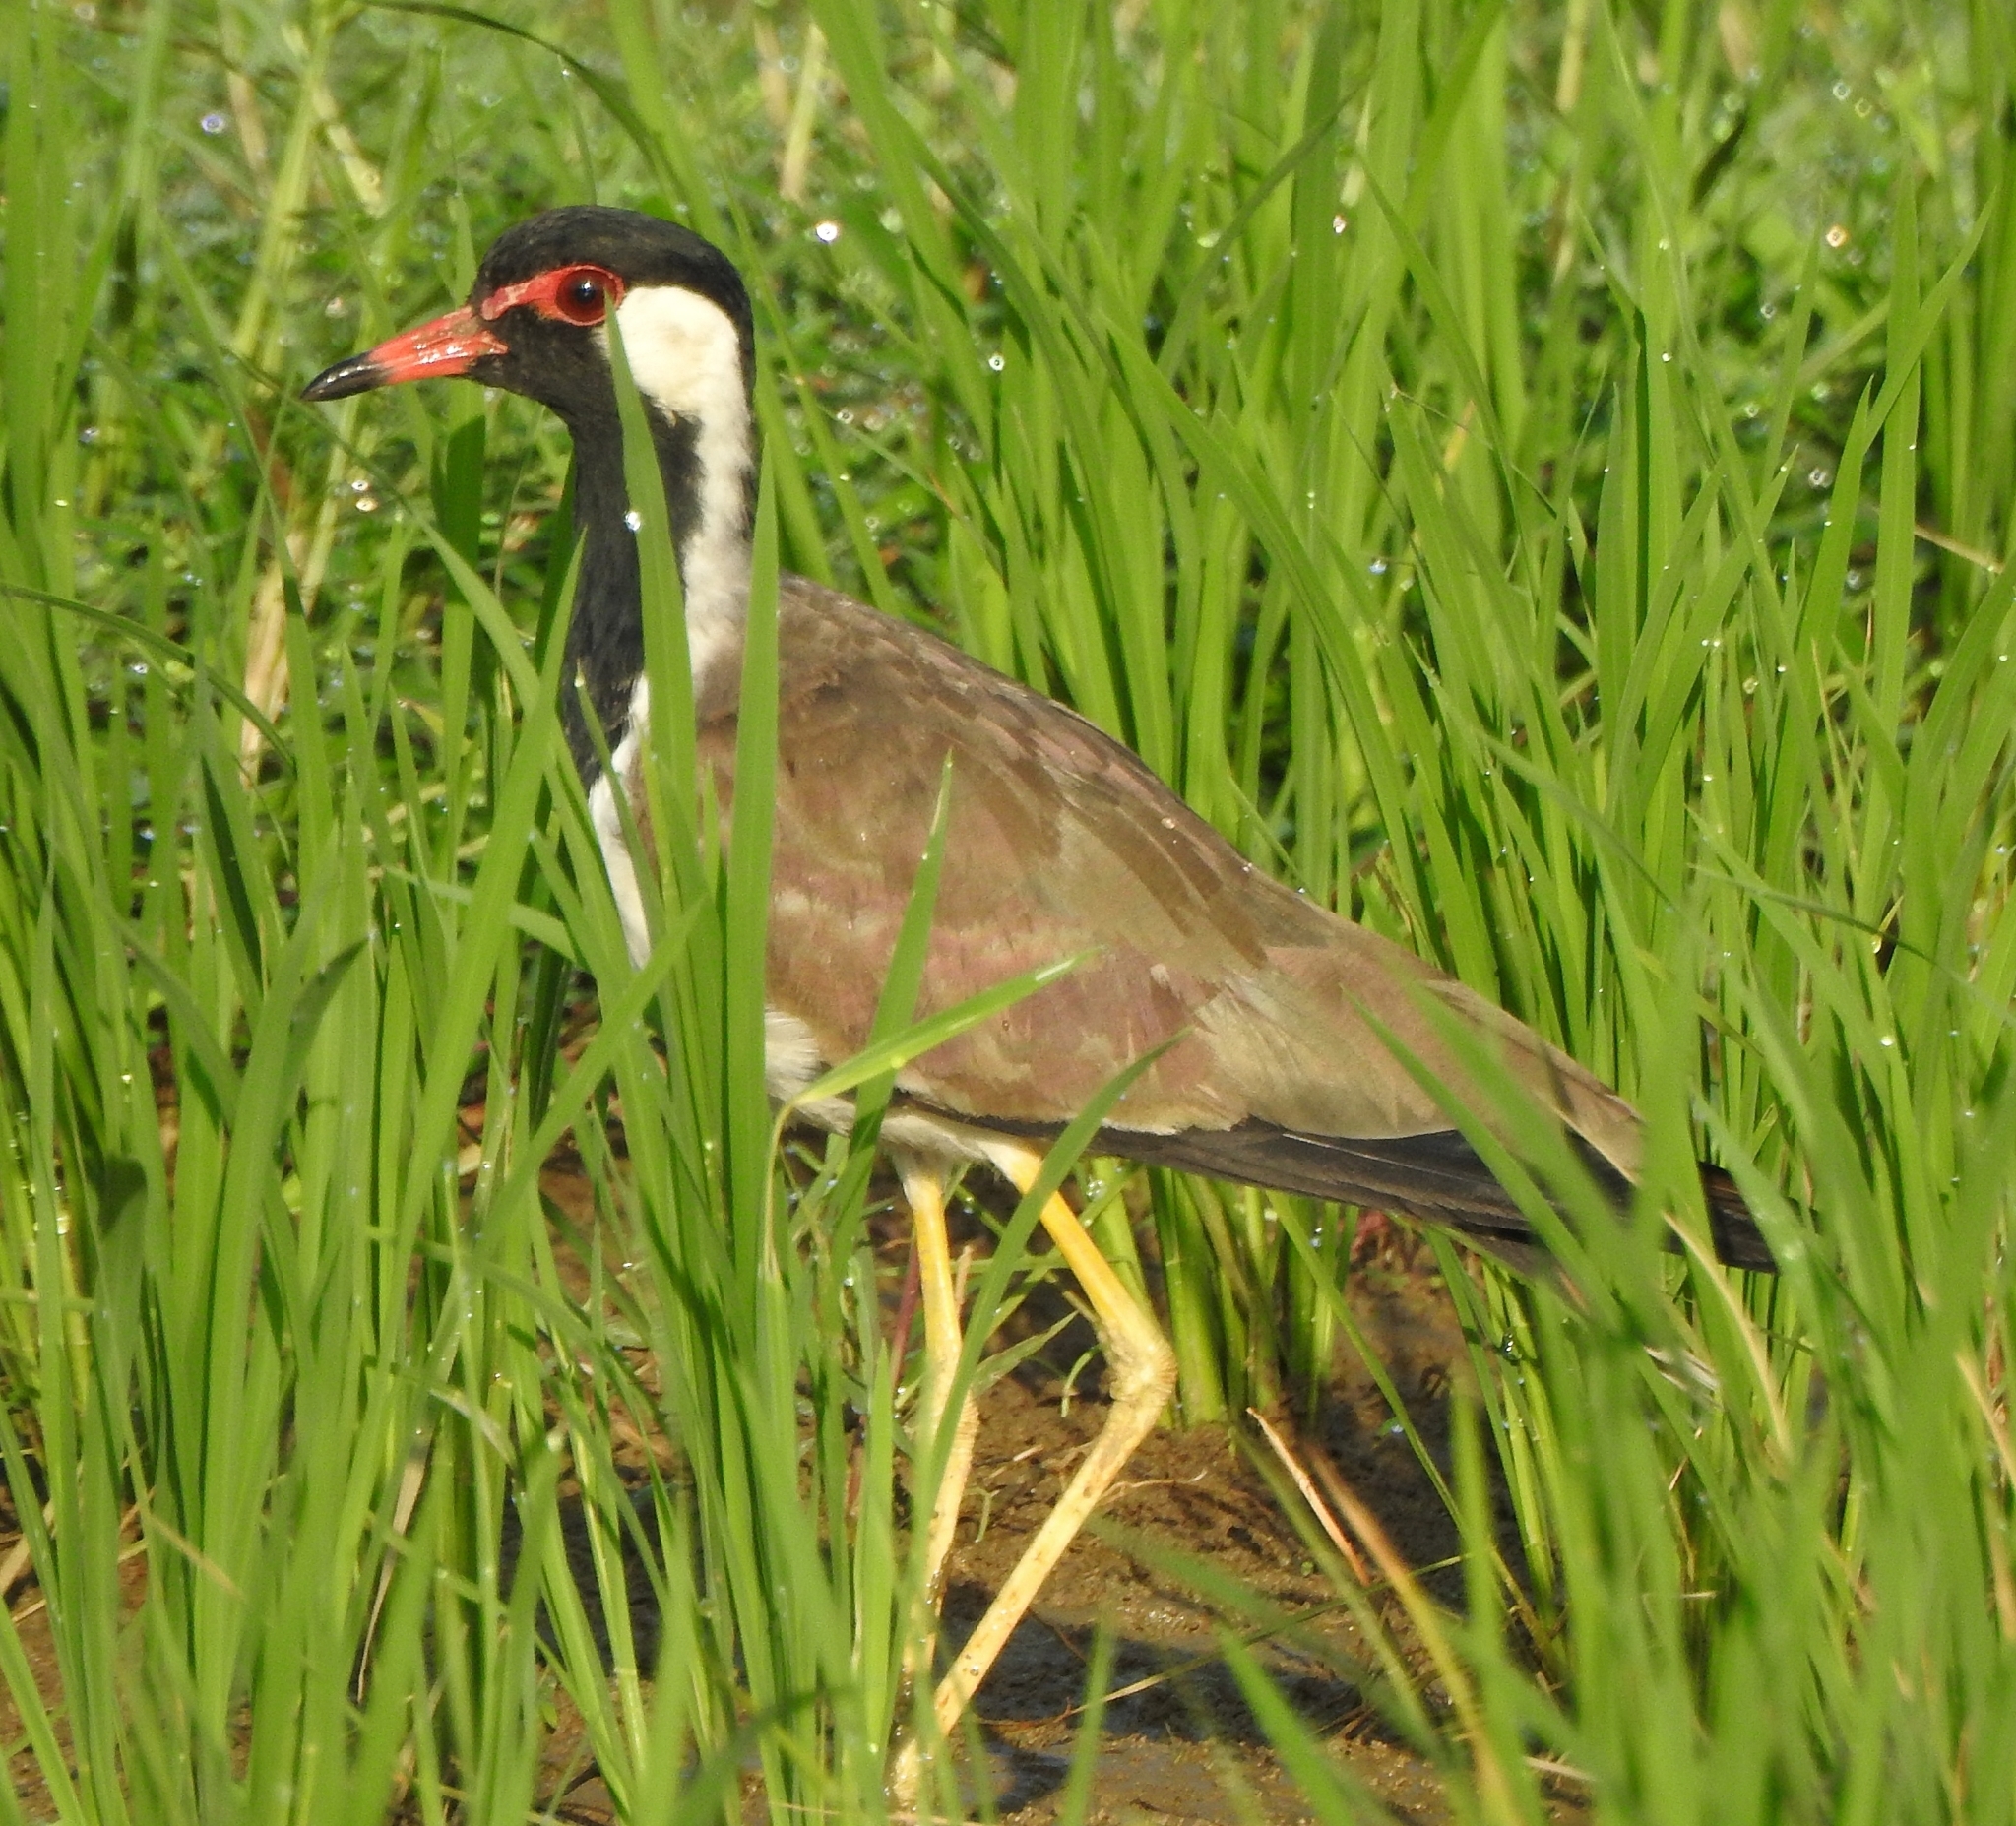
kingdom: Animalia
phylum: Chordata
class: Aves
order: Charadriiformes
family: Charadriidae
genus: Vanellus
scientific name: Vanellus indicus
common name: Red-wattled lapwing
